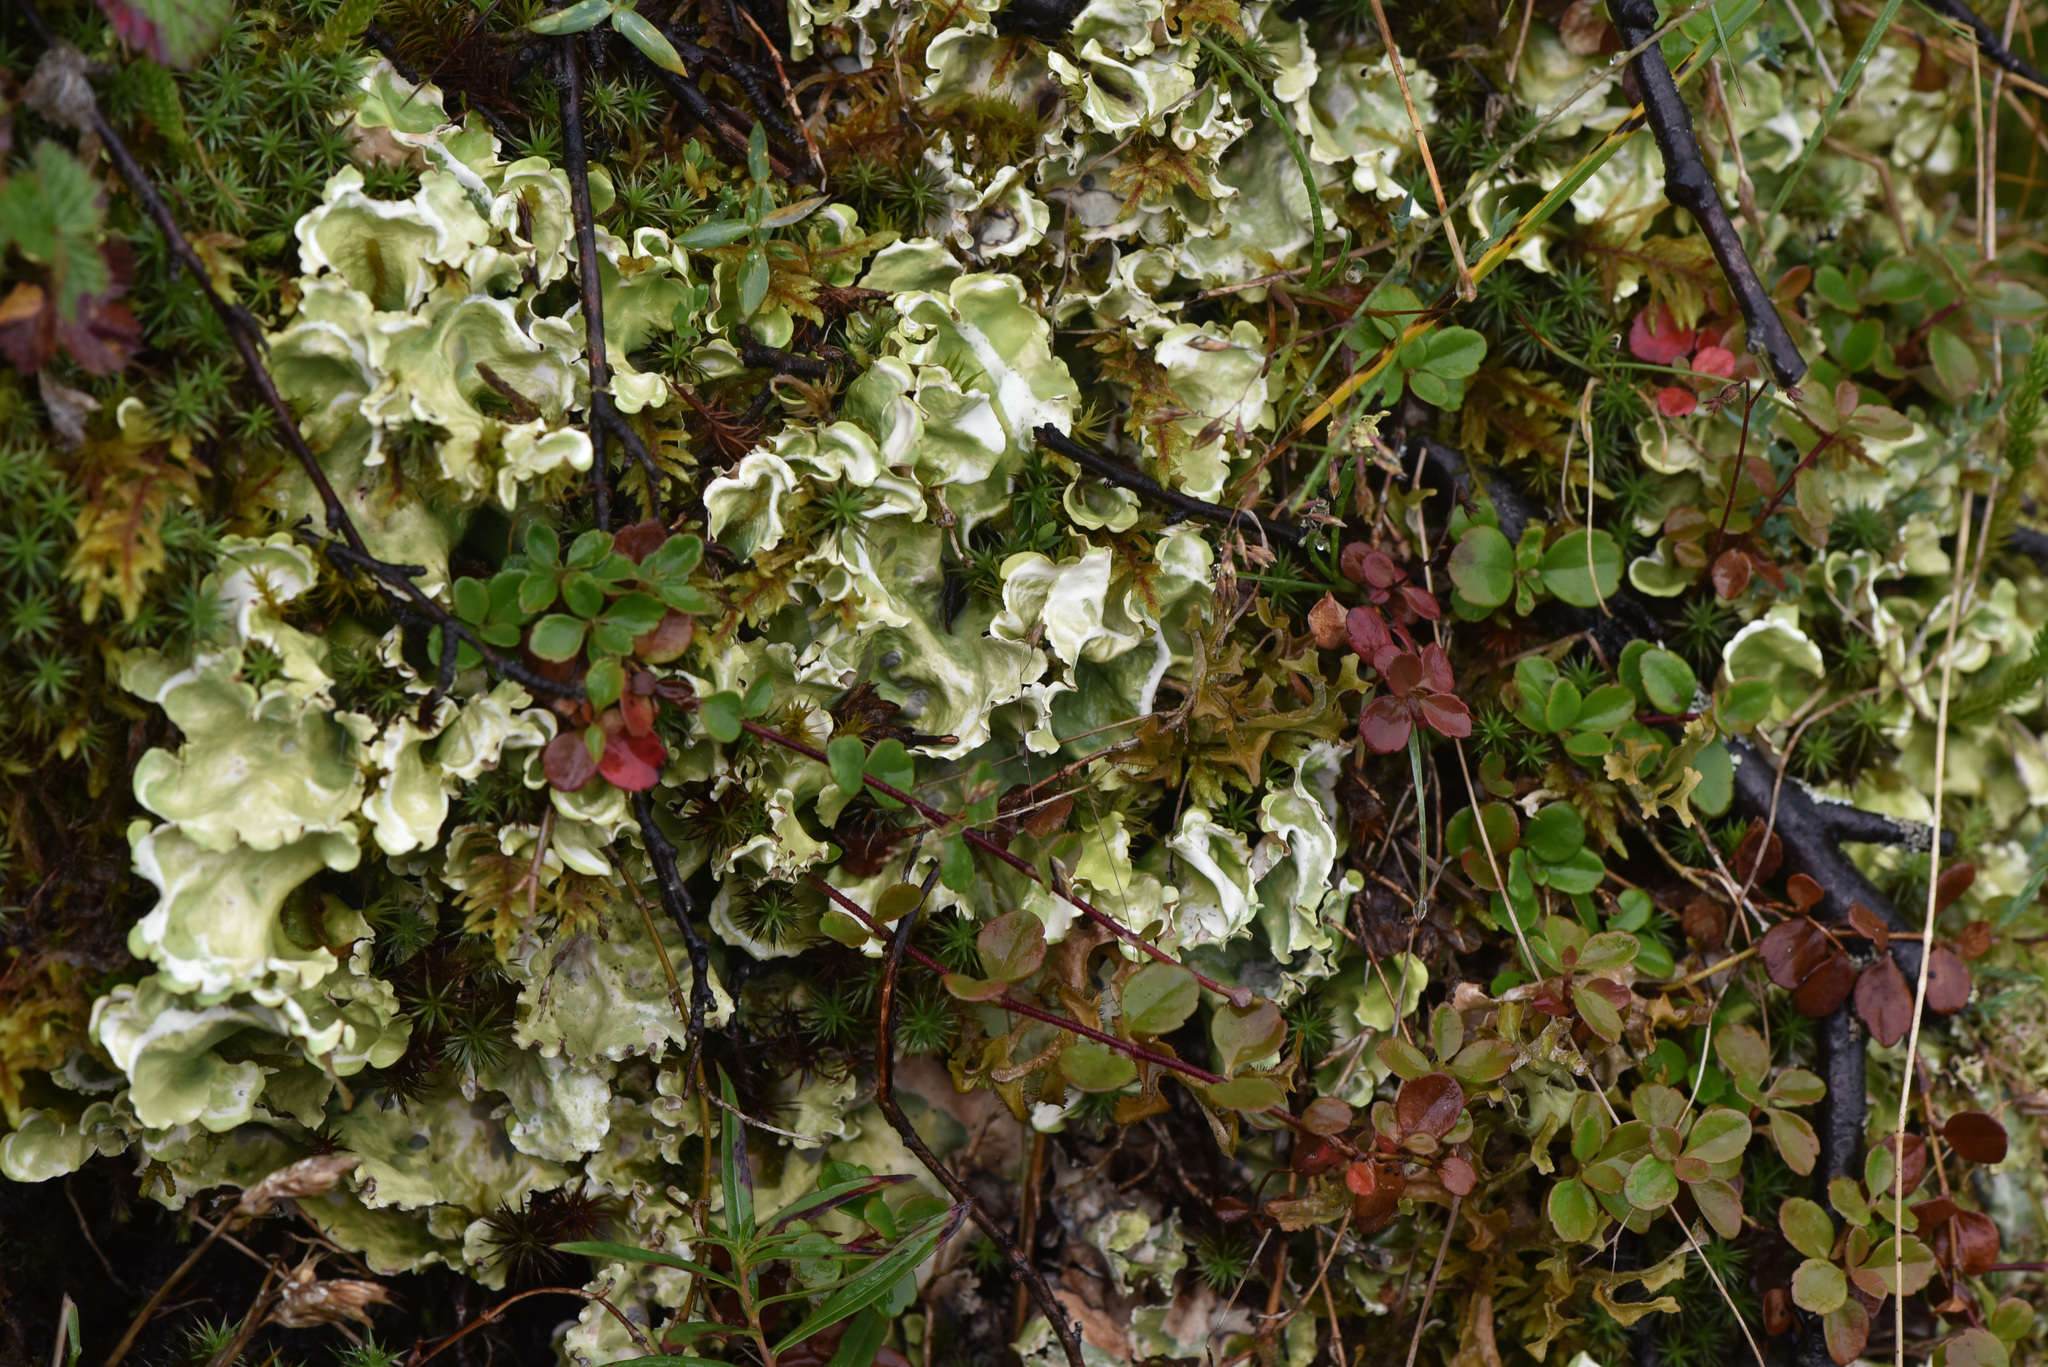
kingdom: Plantae
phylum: Tracheophyta
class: Magnoliopsida
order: Dipsacales
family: Caprifoliaceae
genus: Linnaea
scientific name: Linnaea borealis
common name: Twinflower
